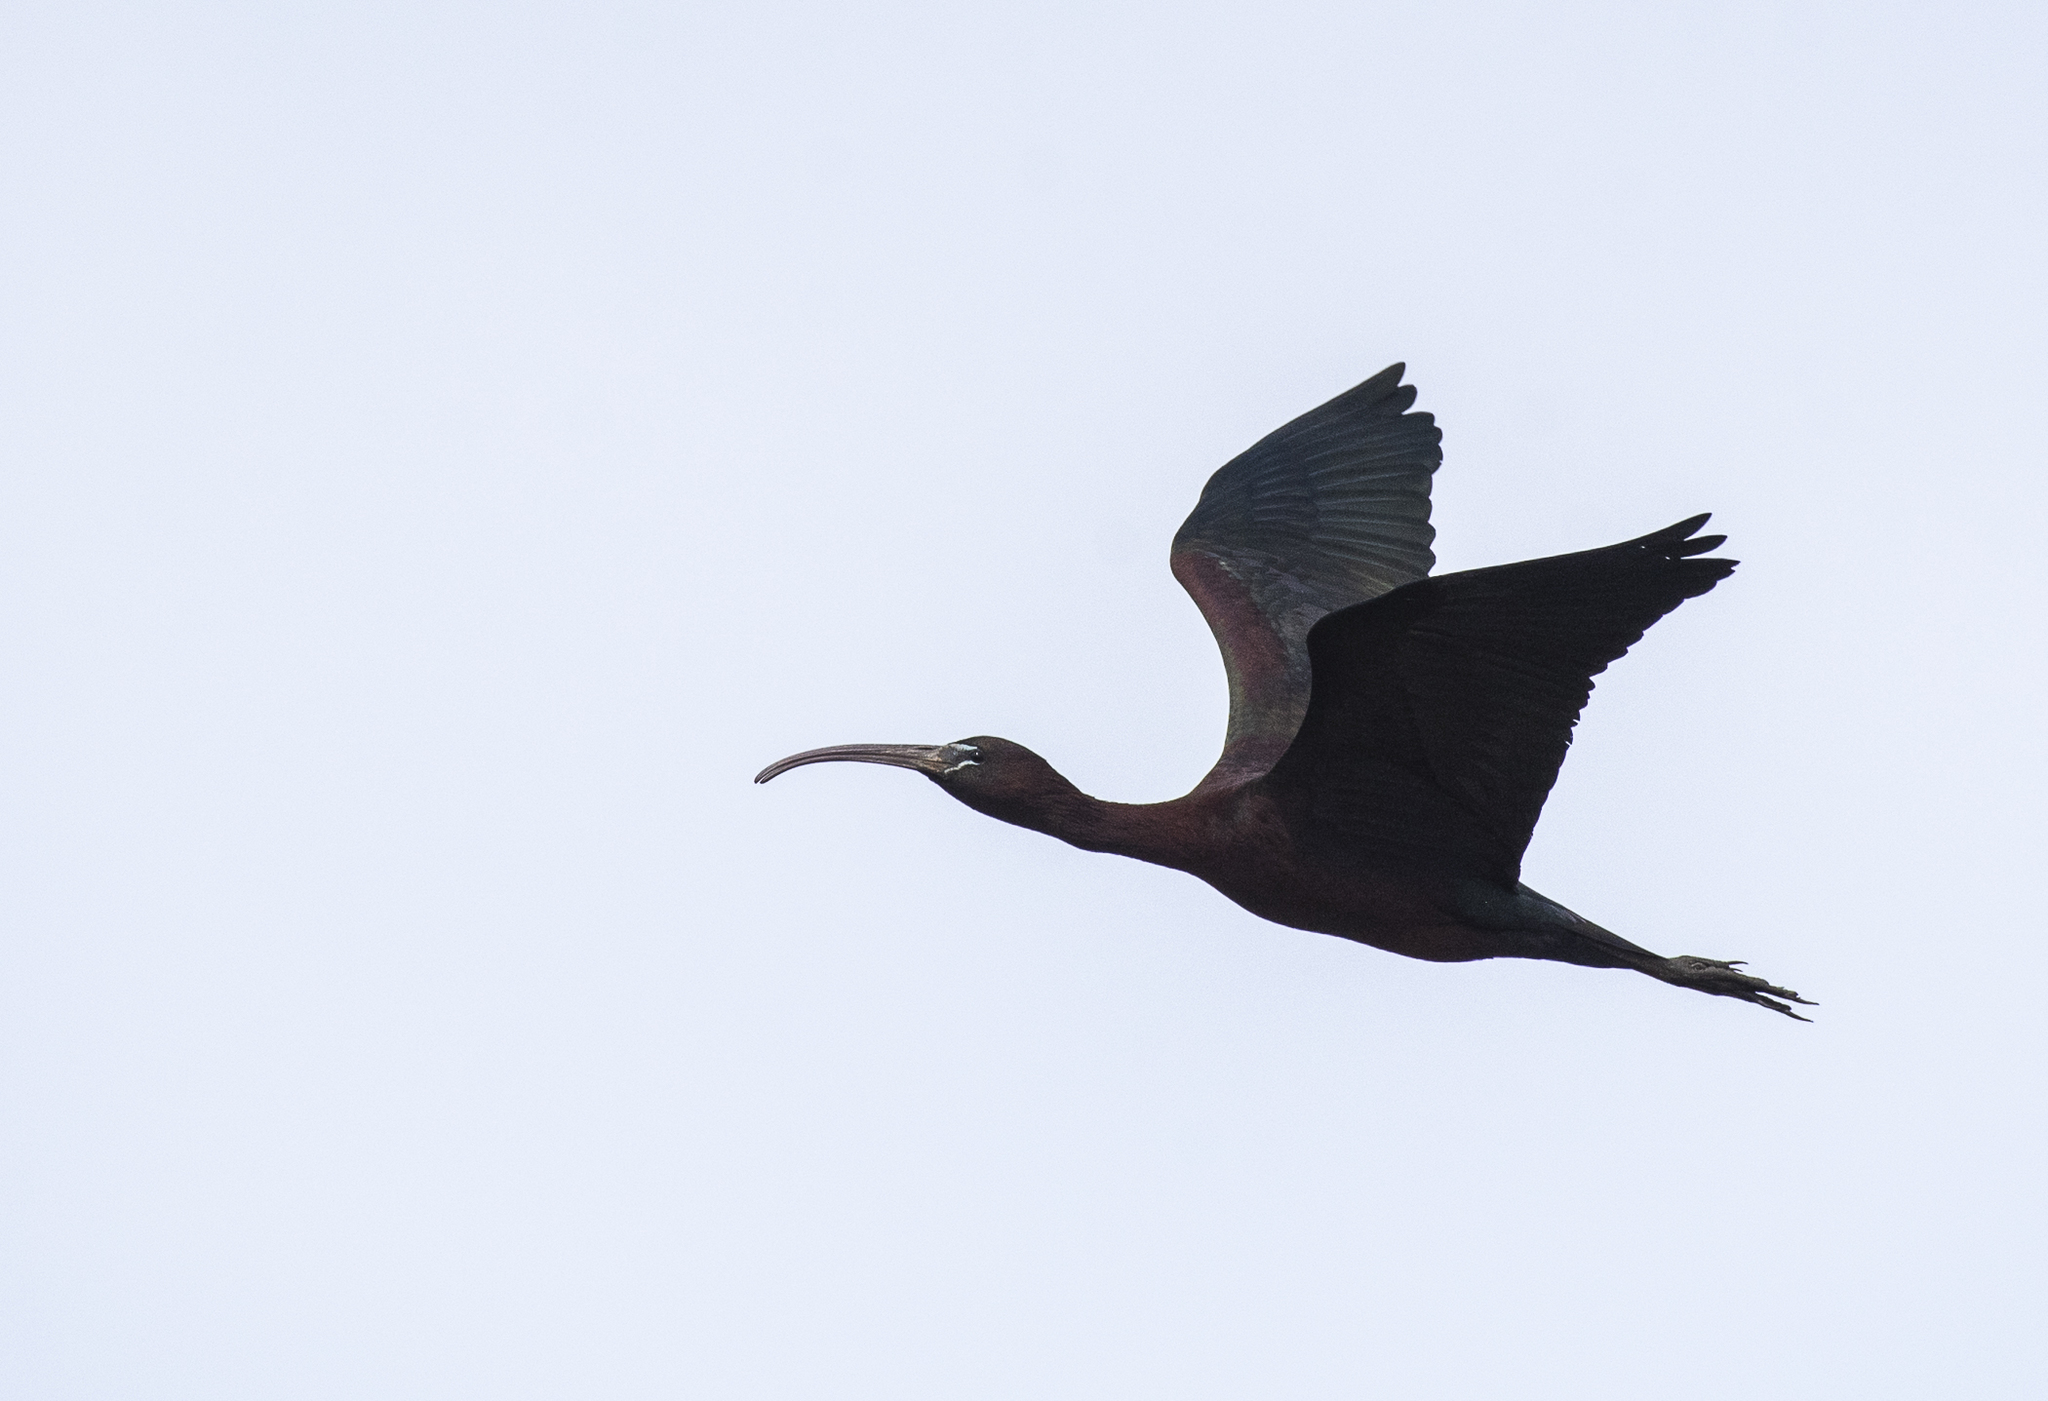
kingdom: Animalia
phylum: Chordata
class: Aves
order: Pelecaniformes
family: Threskiornithidae
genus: Plegadis
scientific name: Plegadis falcinellus
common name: Glossy ibis
